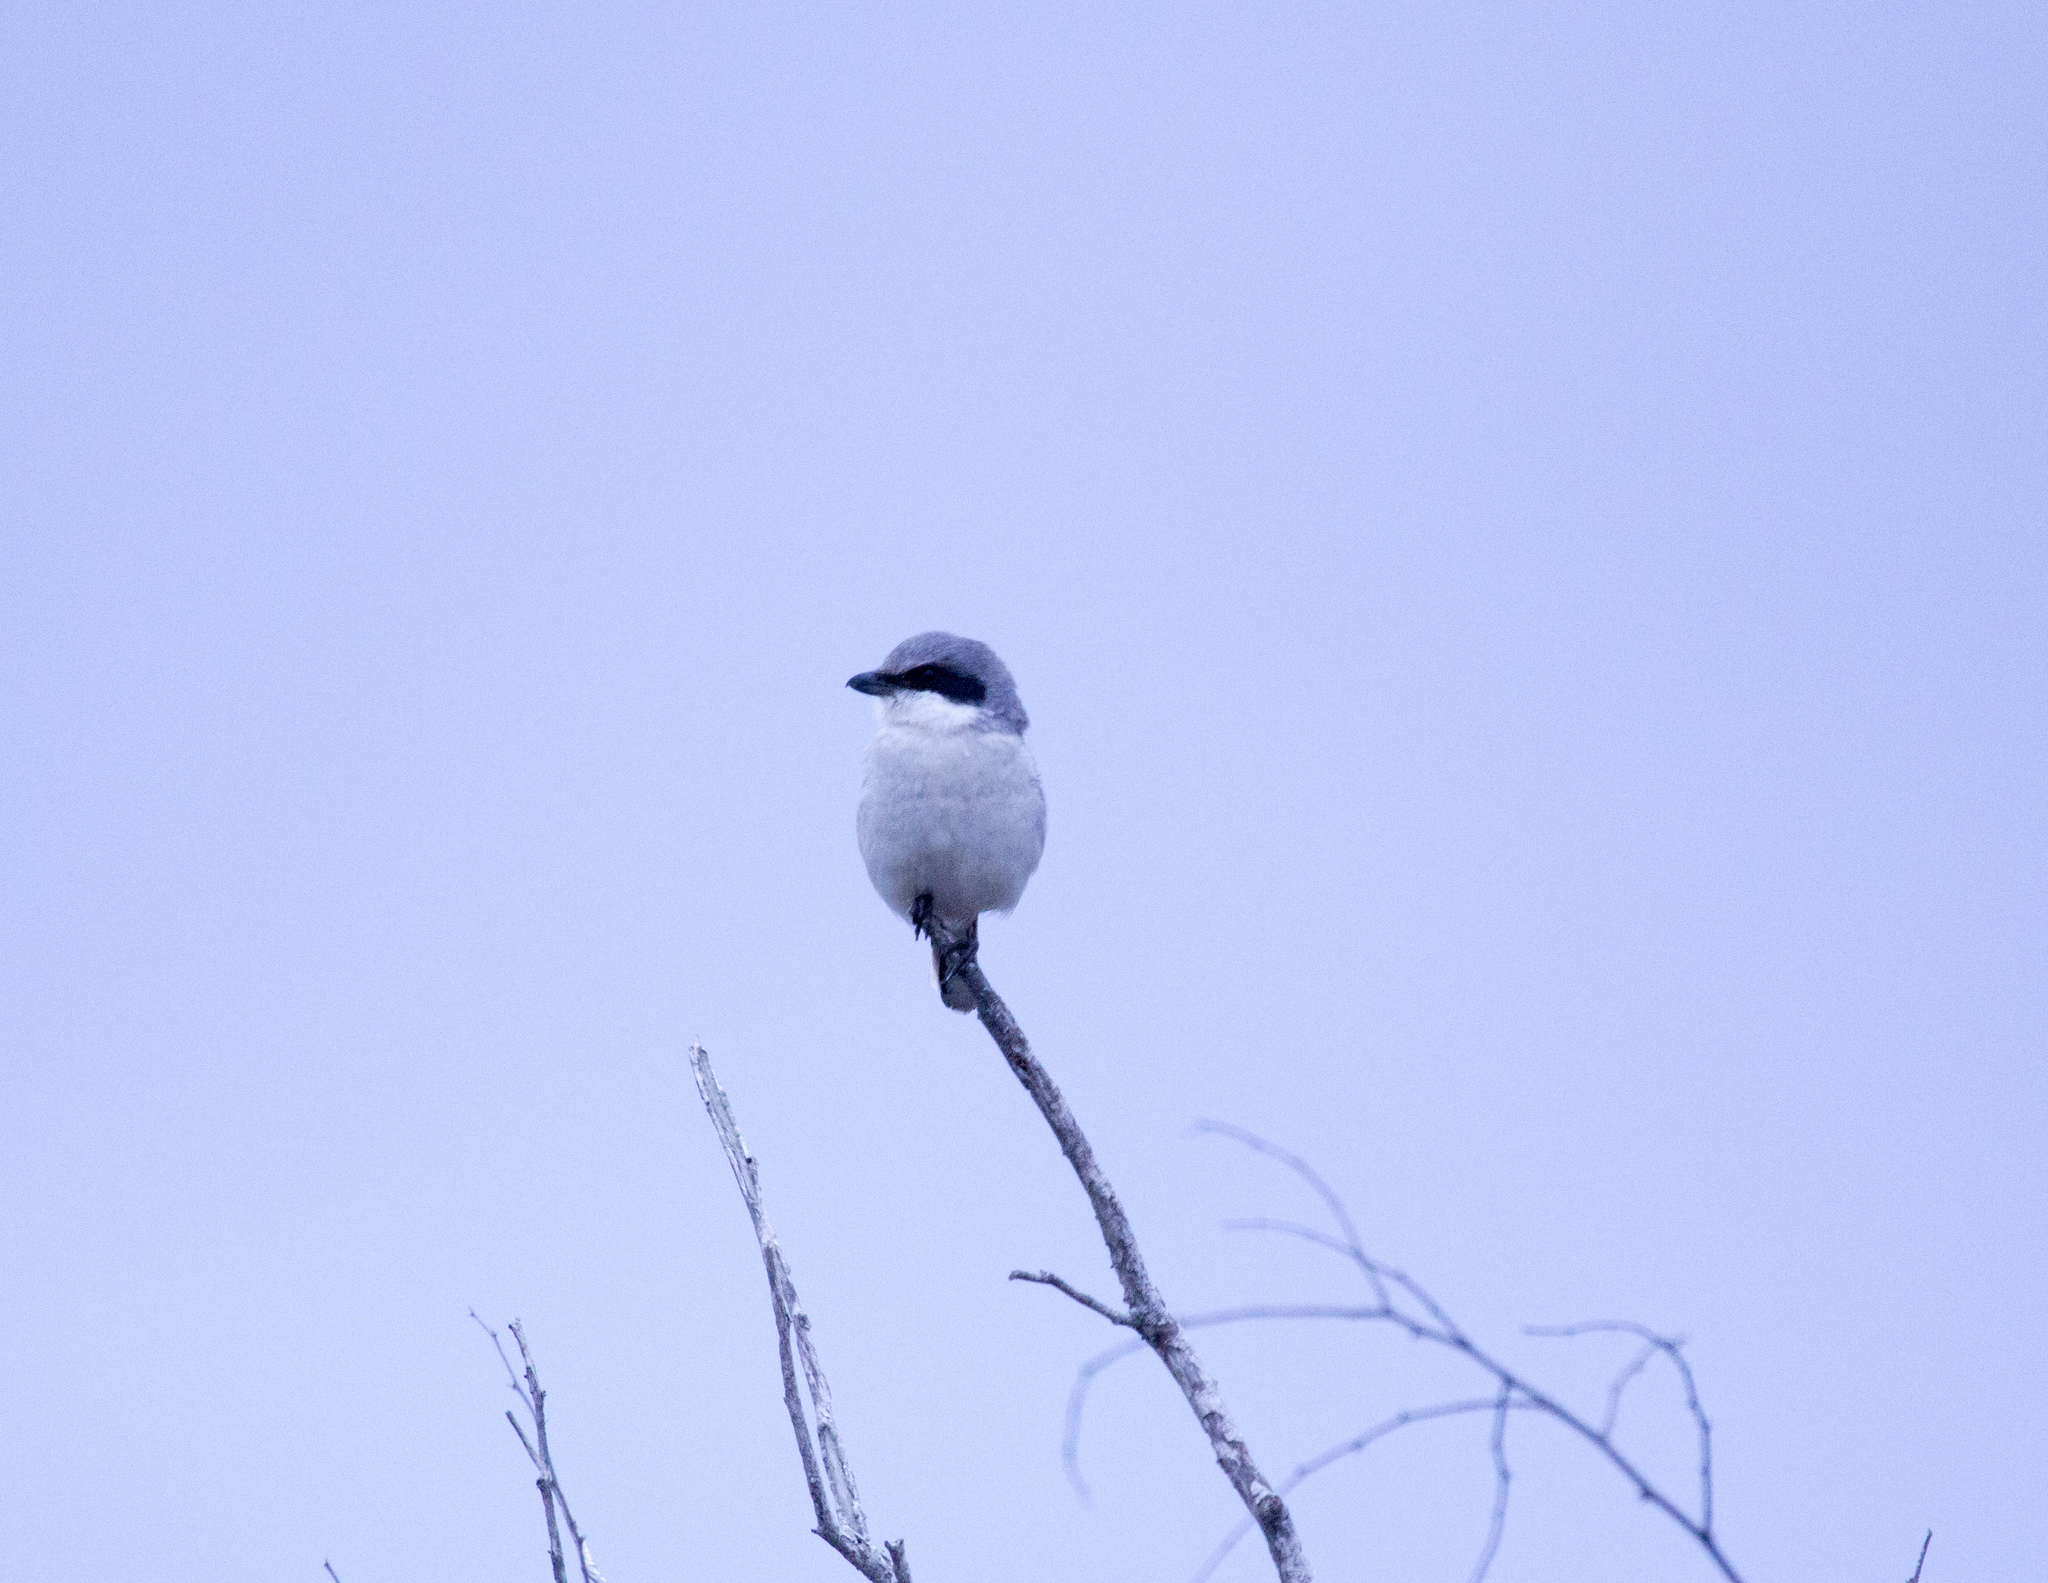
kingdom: Animalia
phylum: Chordata
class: Aves
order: Passeriformes
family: Laniidae
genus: Lanius
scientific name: Lanius ludovicianus
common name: Loggerhead shrike
